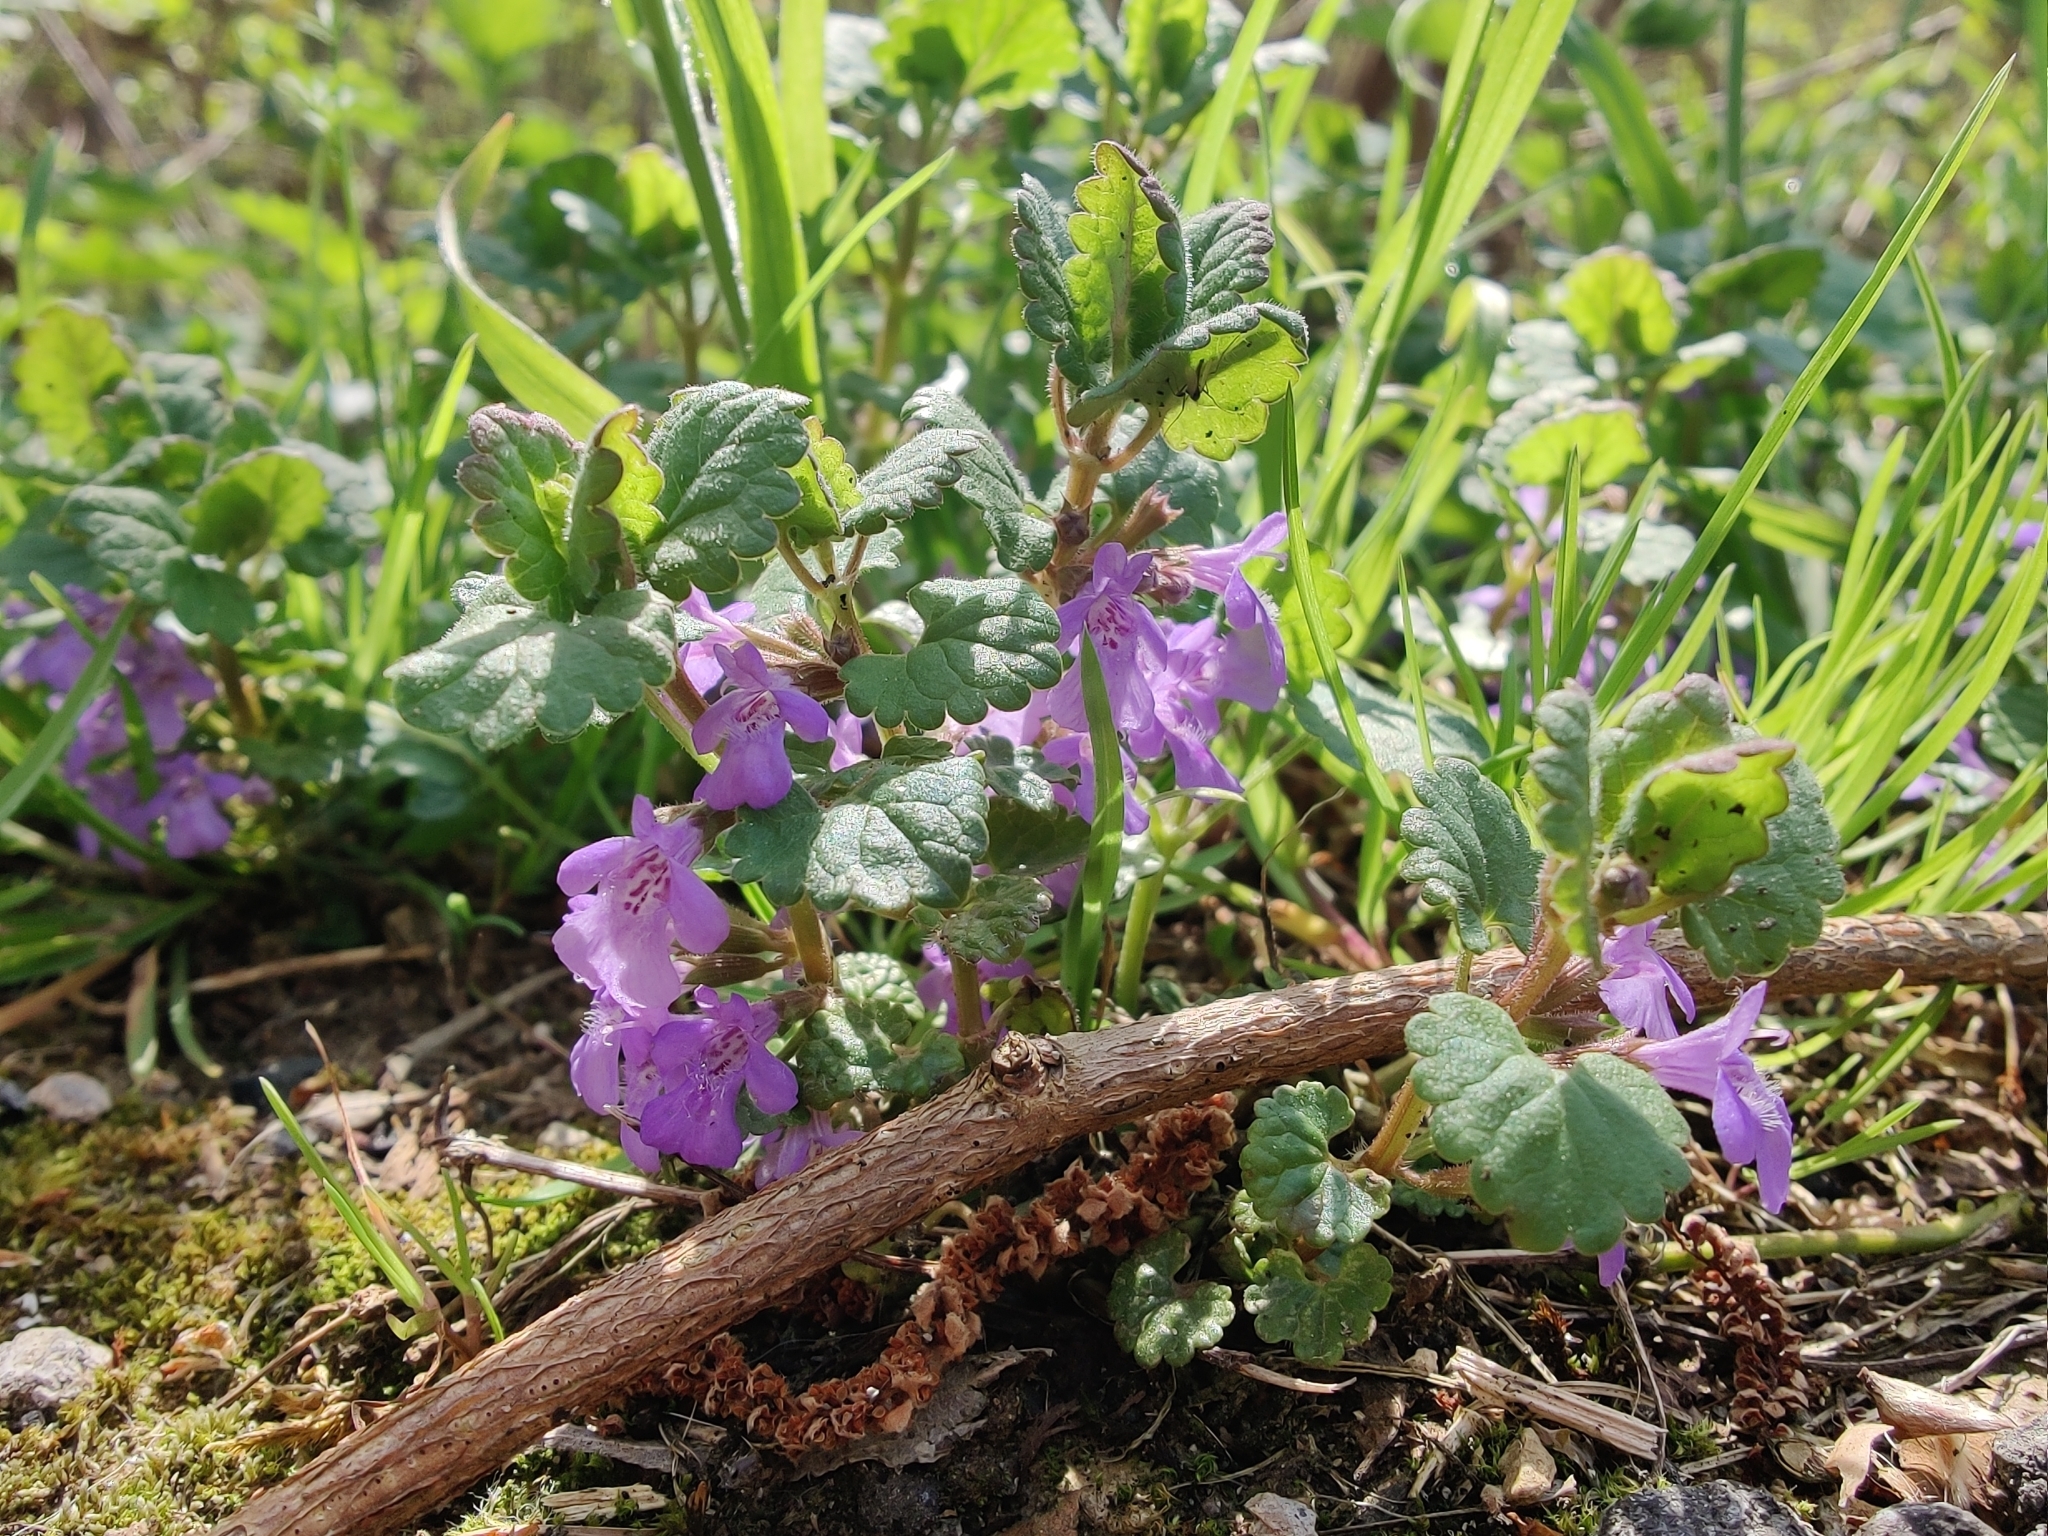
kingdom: Plantae
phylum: Tracheophyta
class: Magnoliopsida
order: Lamiales
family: Lamiaceae
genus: Glechoma
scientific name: Glechoma hederacea
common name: Ground ivy
